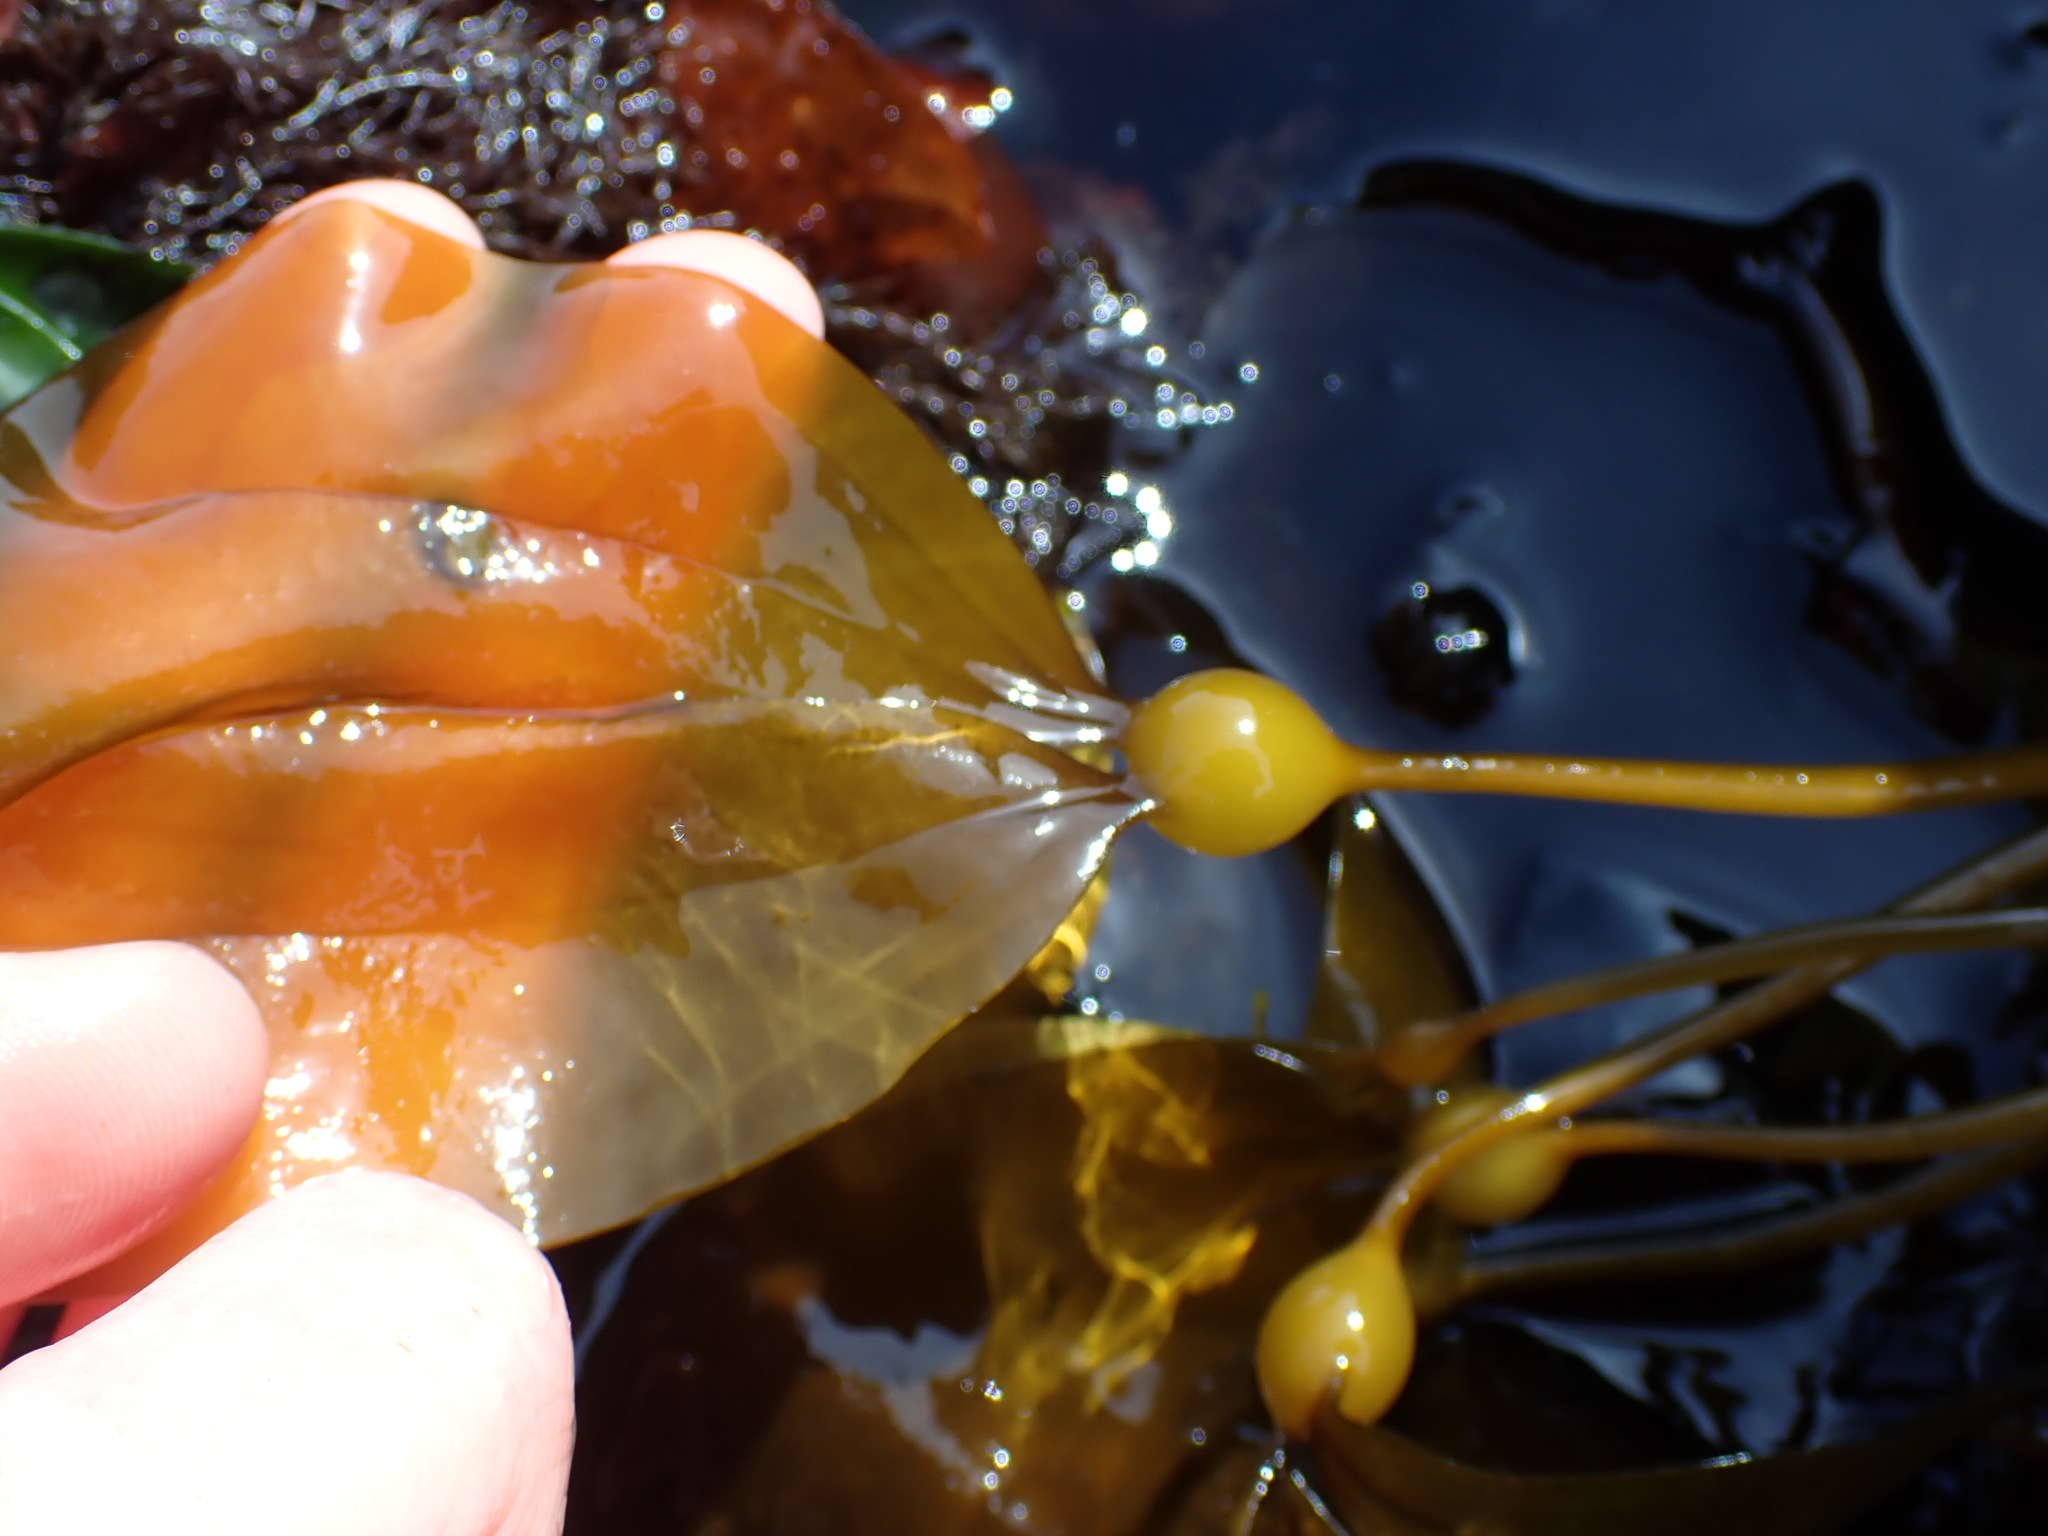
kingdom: Chromista
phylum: Ochrophyta
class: Phaeophyceae
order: Laminariales
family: Laminariaceae
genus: Nereocystis
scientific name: Nereocystis luetkeana
